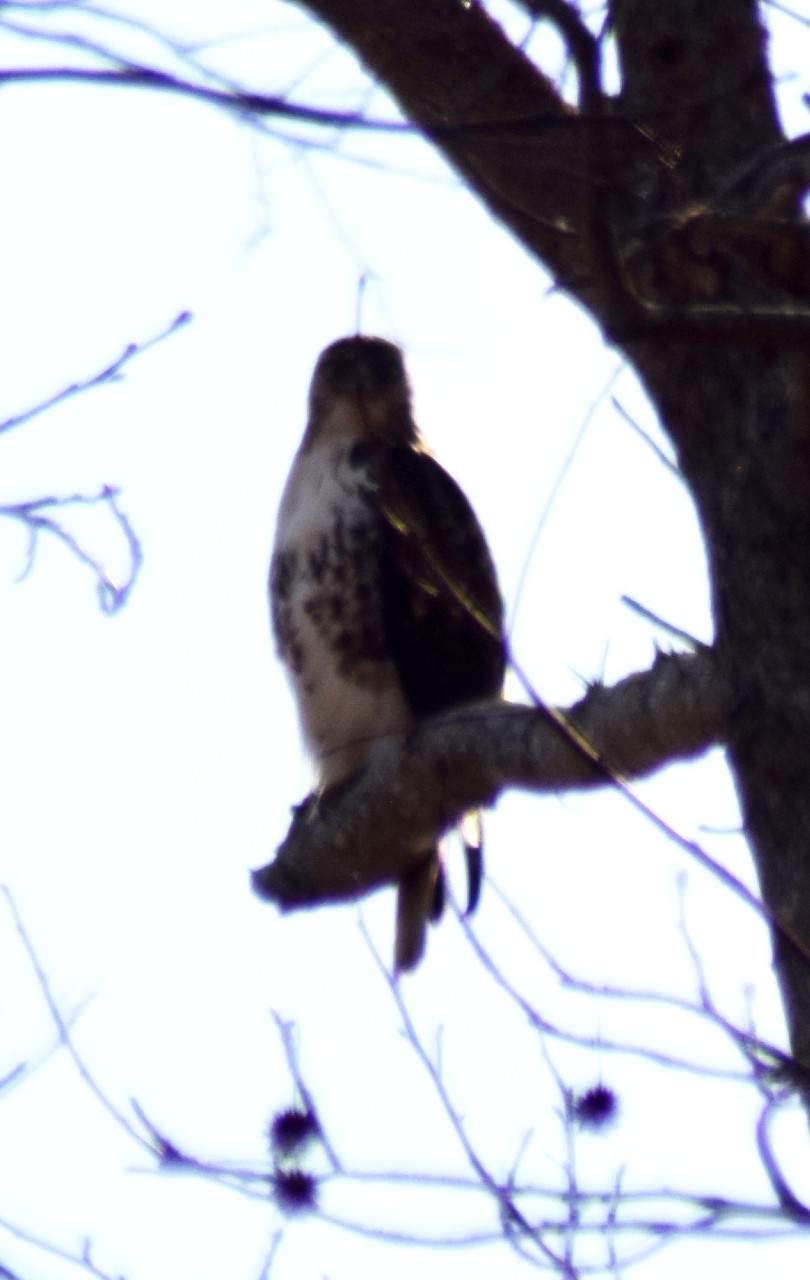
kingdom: Animalia
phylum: Chordata
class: Aves
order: Accipitriformes
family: Accipitridae
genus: Buteo
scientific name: Buteo jamaicensis
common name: Red-tailed hawk
